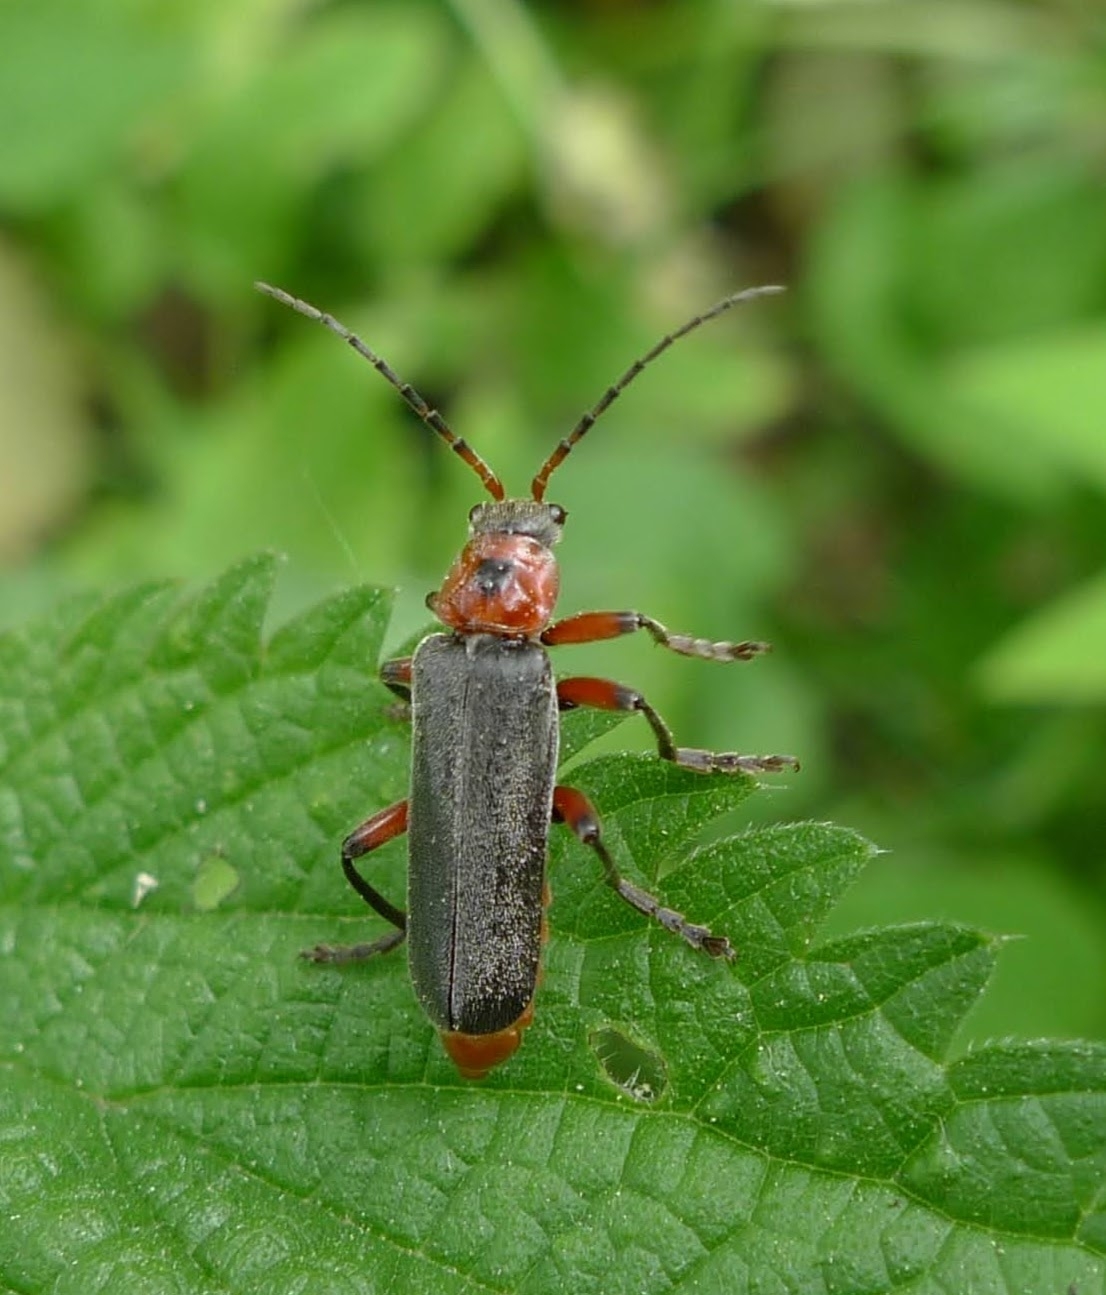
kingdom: Animalia
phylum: Arthropoda
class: Insecta
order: Coleoptera
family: Cantharidae
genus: Cantharis
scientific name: Cantharis rustica
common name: Soldier beetle
